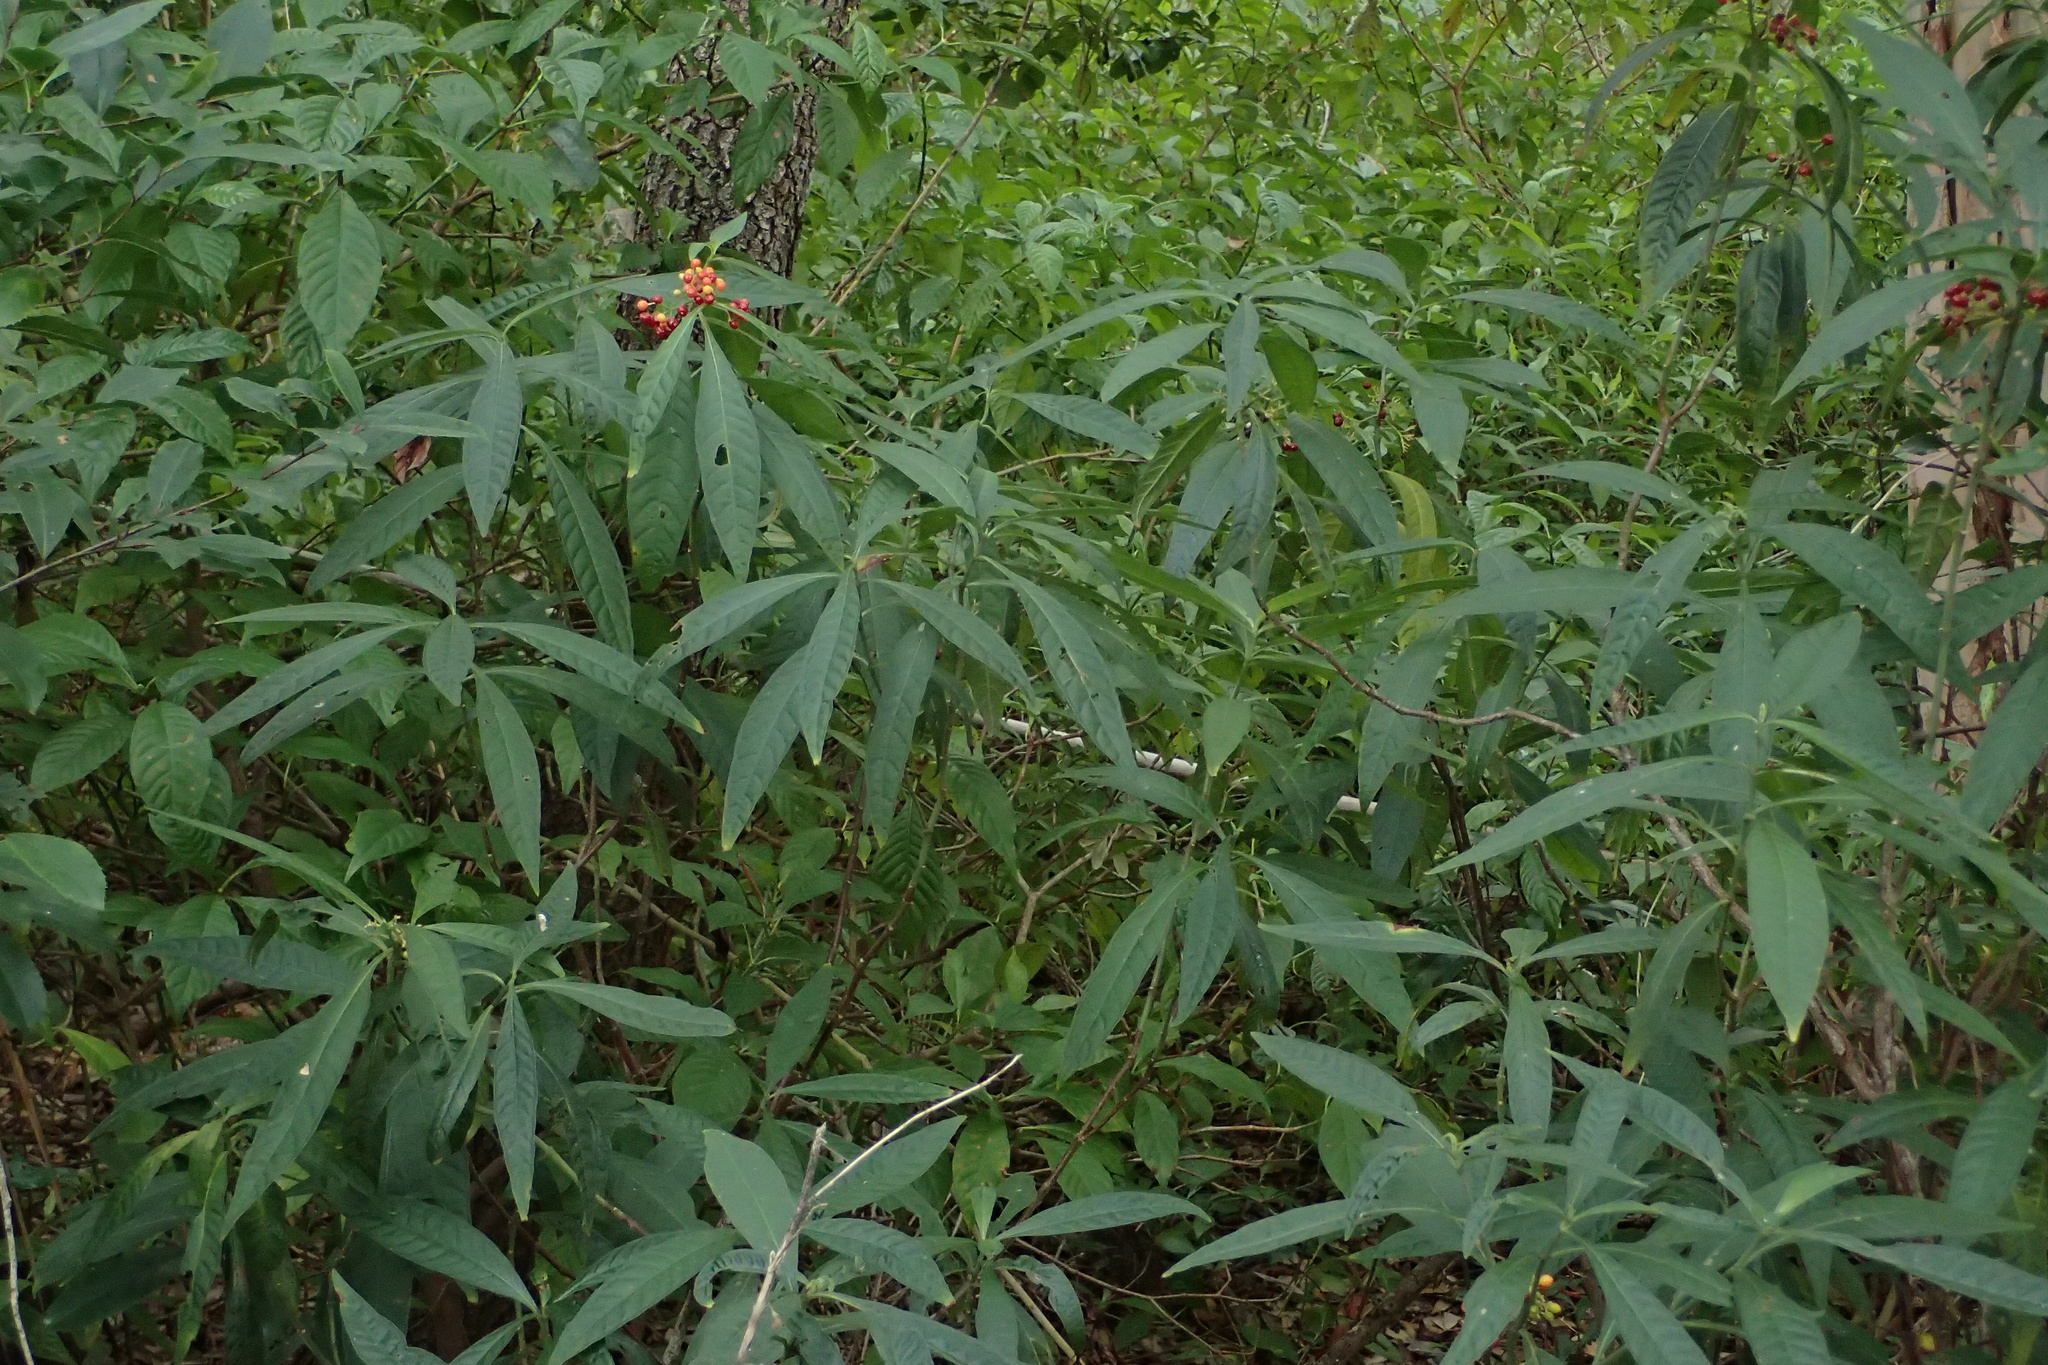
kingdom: Plantae
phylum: Tracheophyta
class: Magnoliopsida
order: Gentianales
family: Rubiaceae
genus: Psychotria
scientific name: Psychotria tenuifolia
